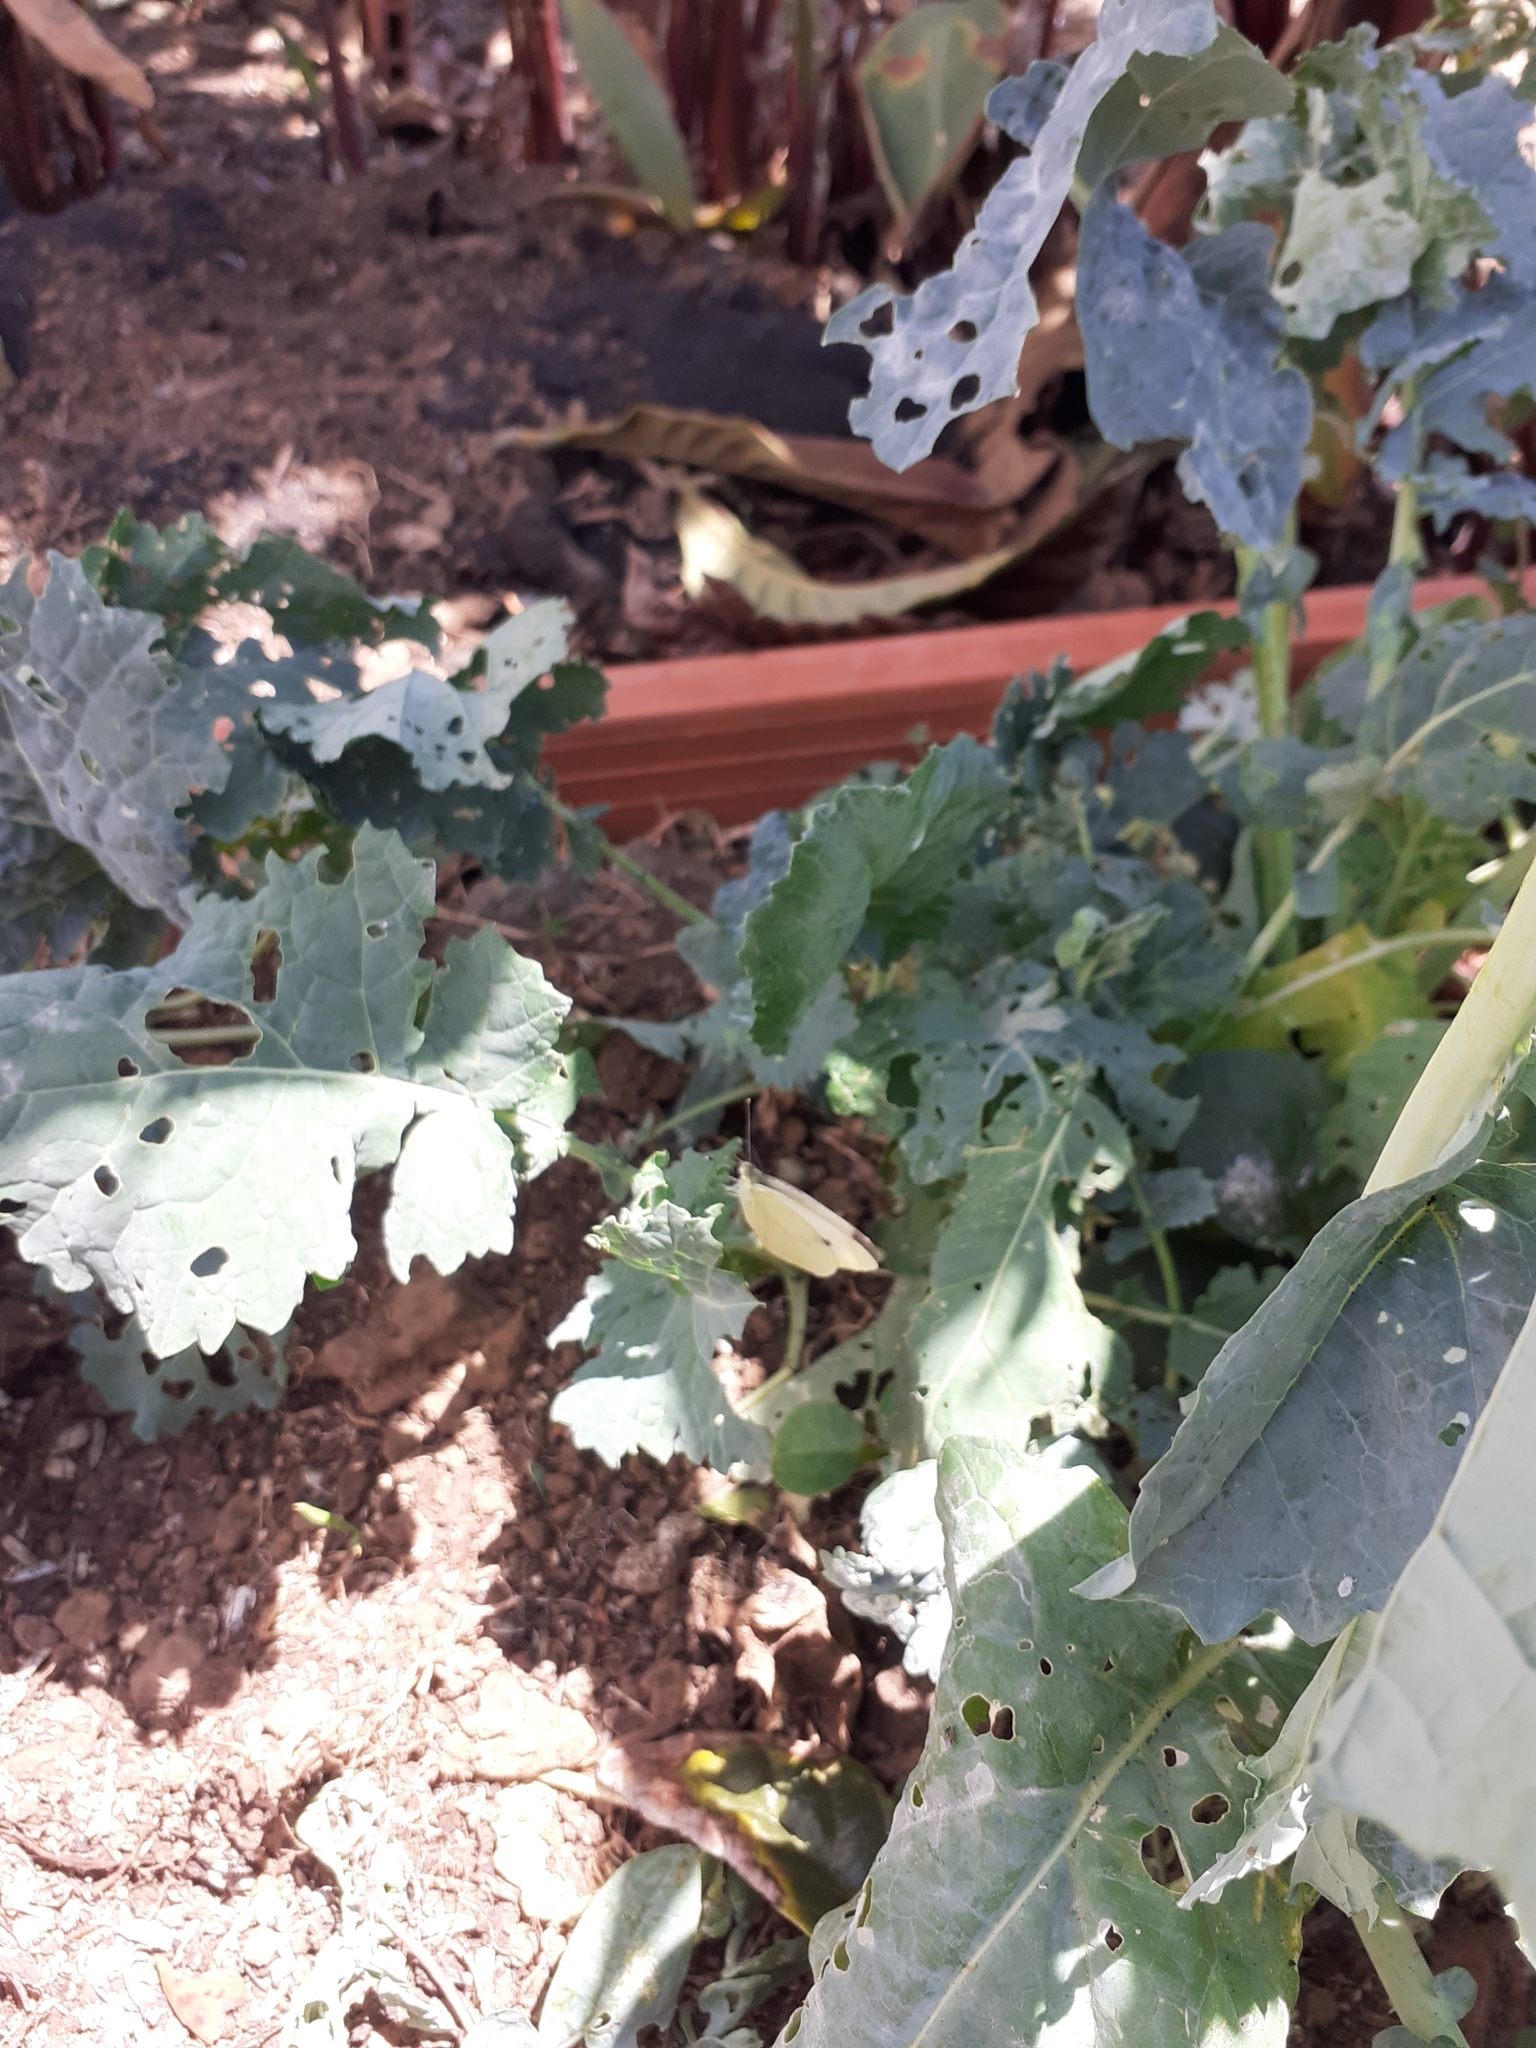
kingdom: Animalia
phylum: Arthropoda
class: Insecta
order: Lepidoptera
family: Pieridae
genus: Pieris
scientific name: Pieris rapae
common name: Small white
